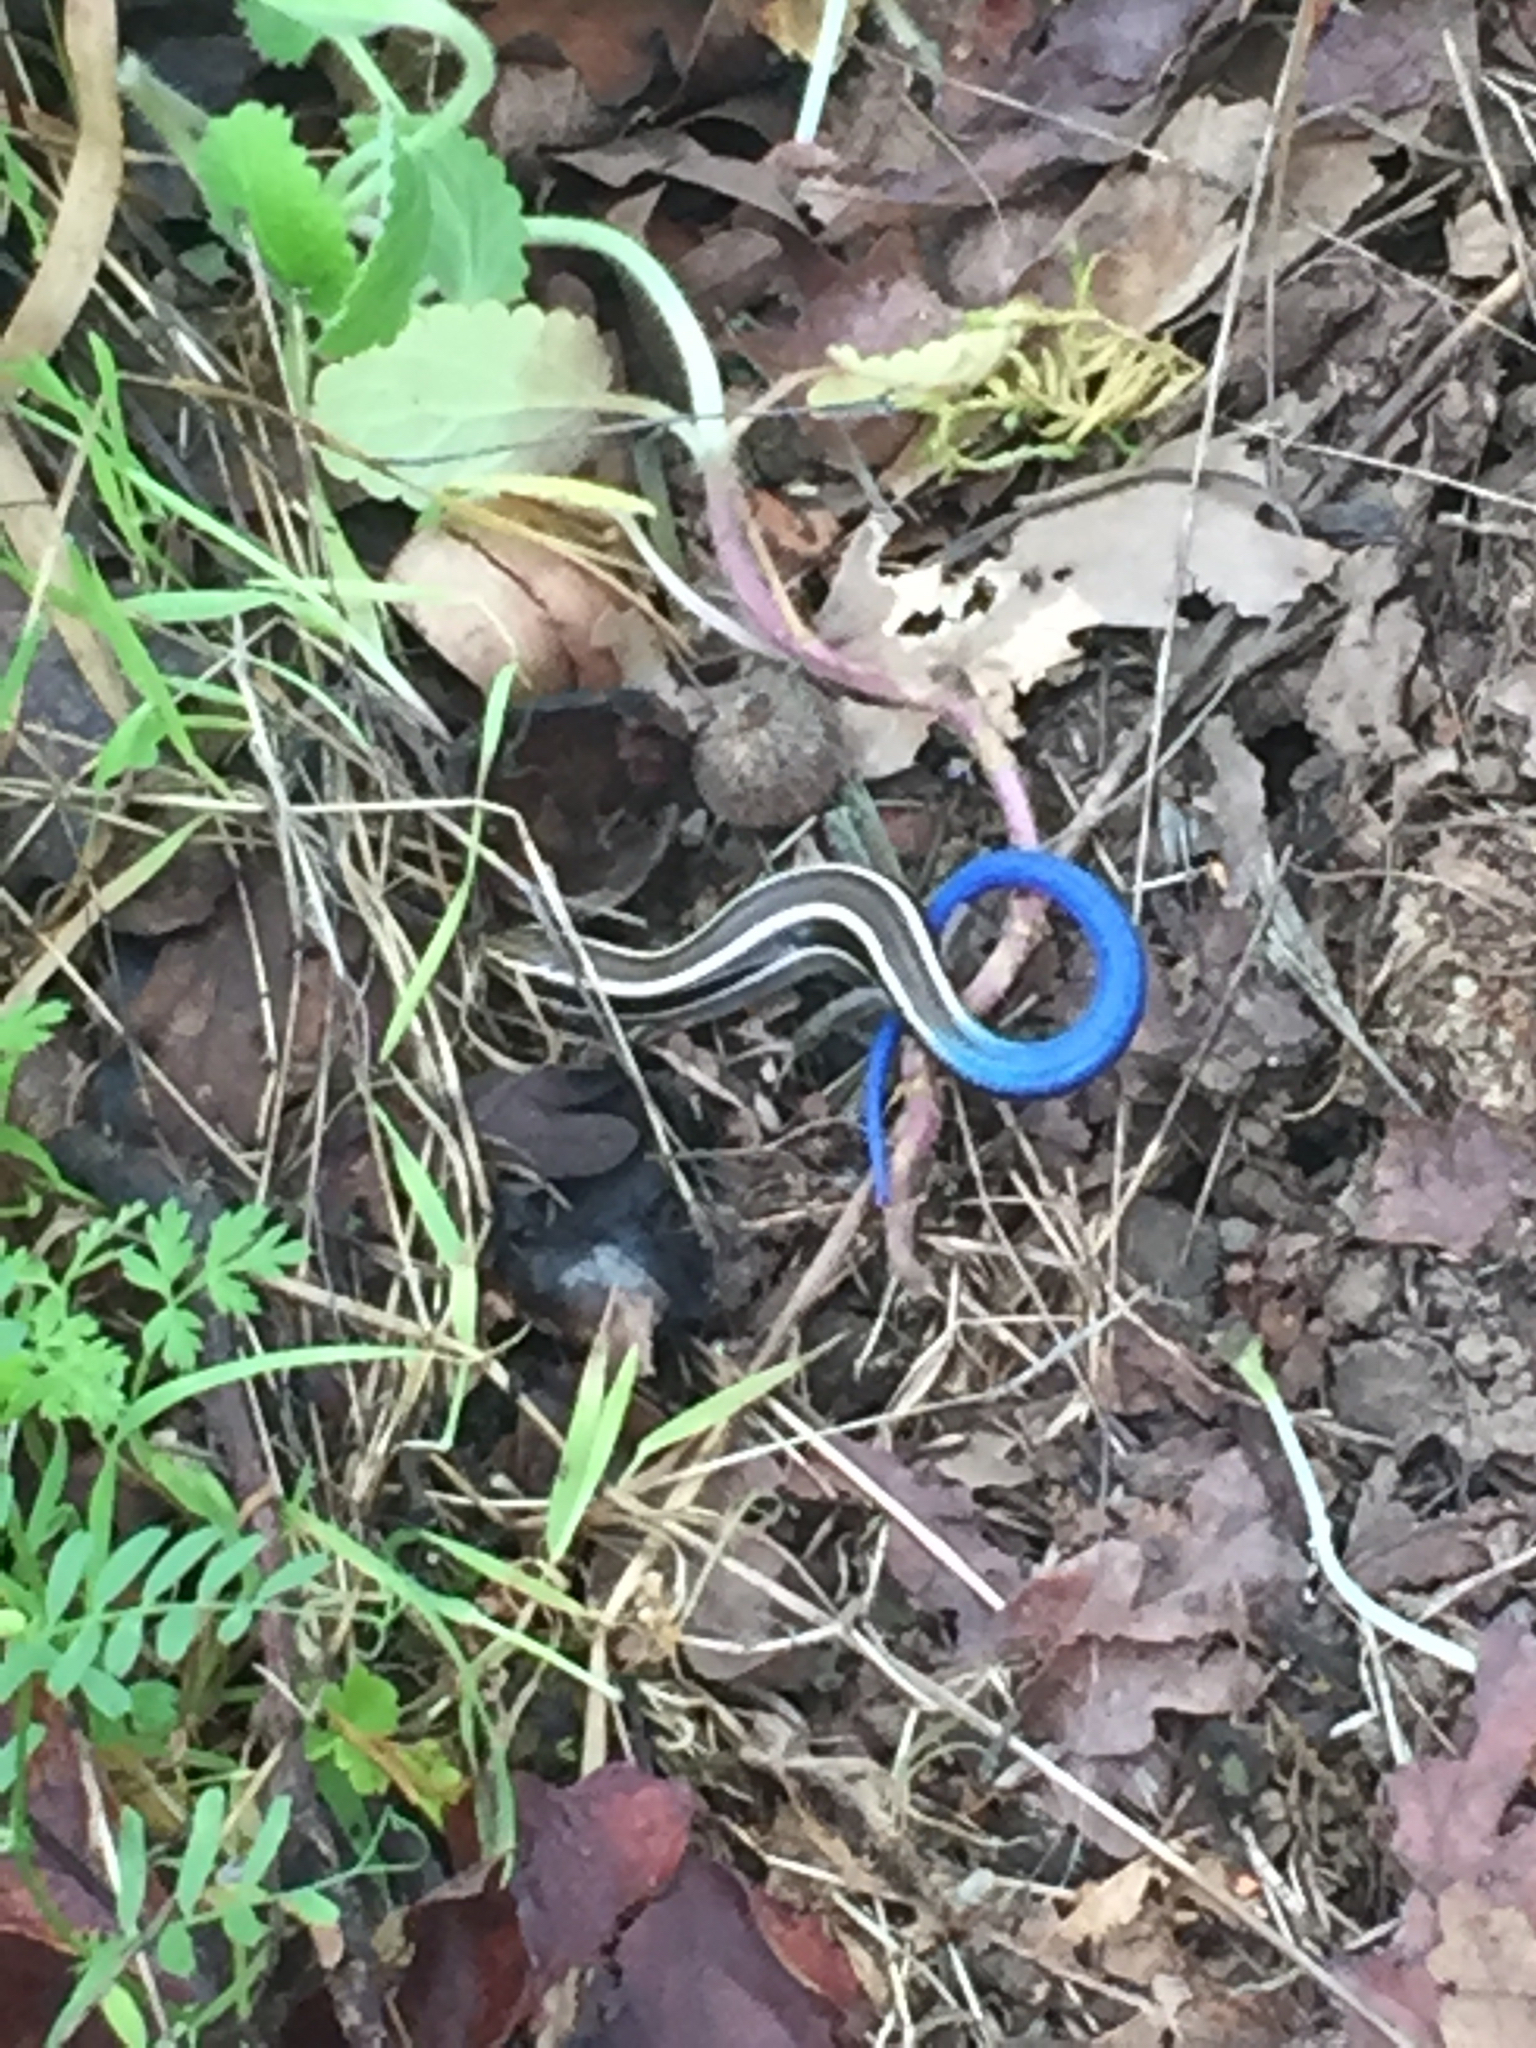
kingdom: Animalia
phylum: Chordata
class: Squamata
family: Scincidae
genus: Plestiodon
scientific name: Plestiodon skiltonianus
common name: Coronado island skink [interparietalis]
